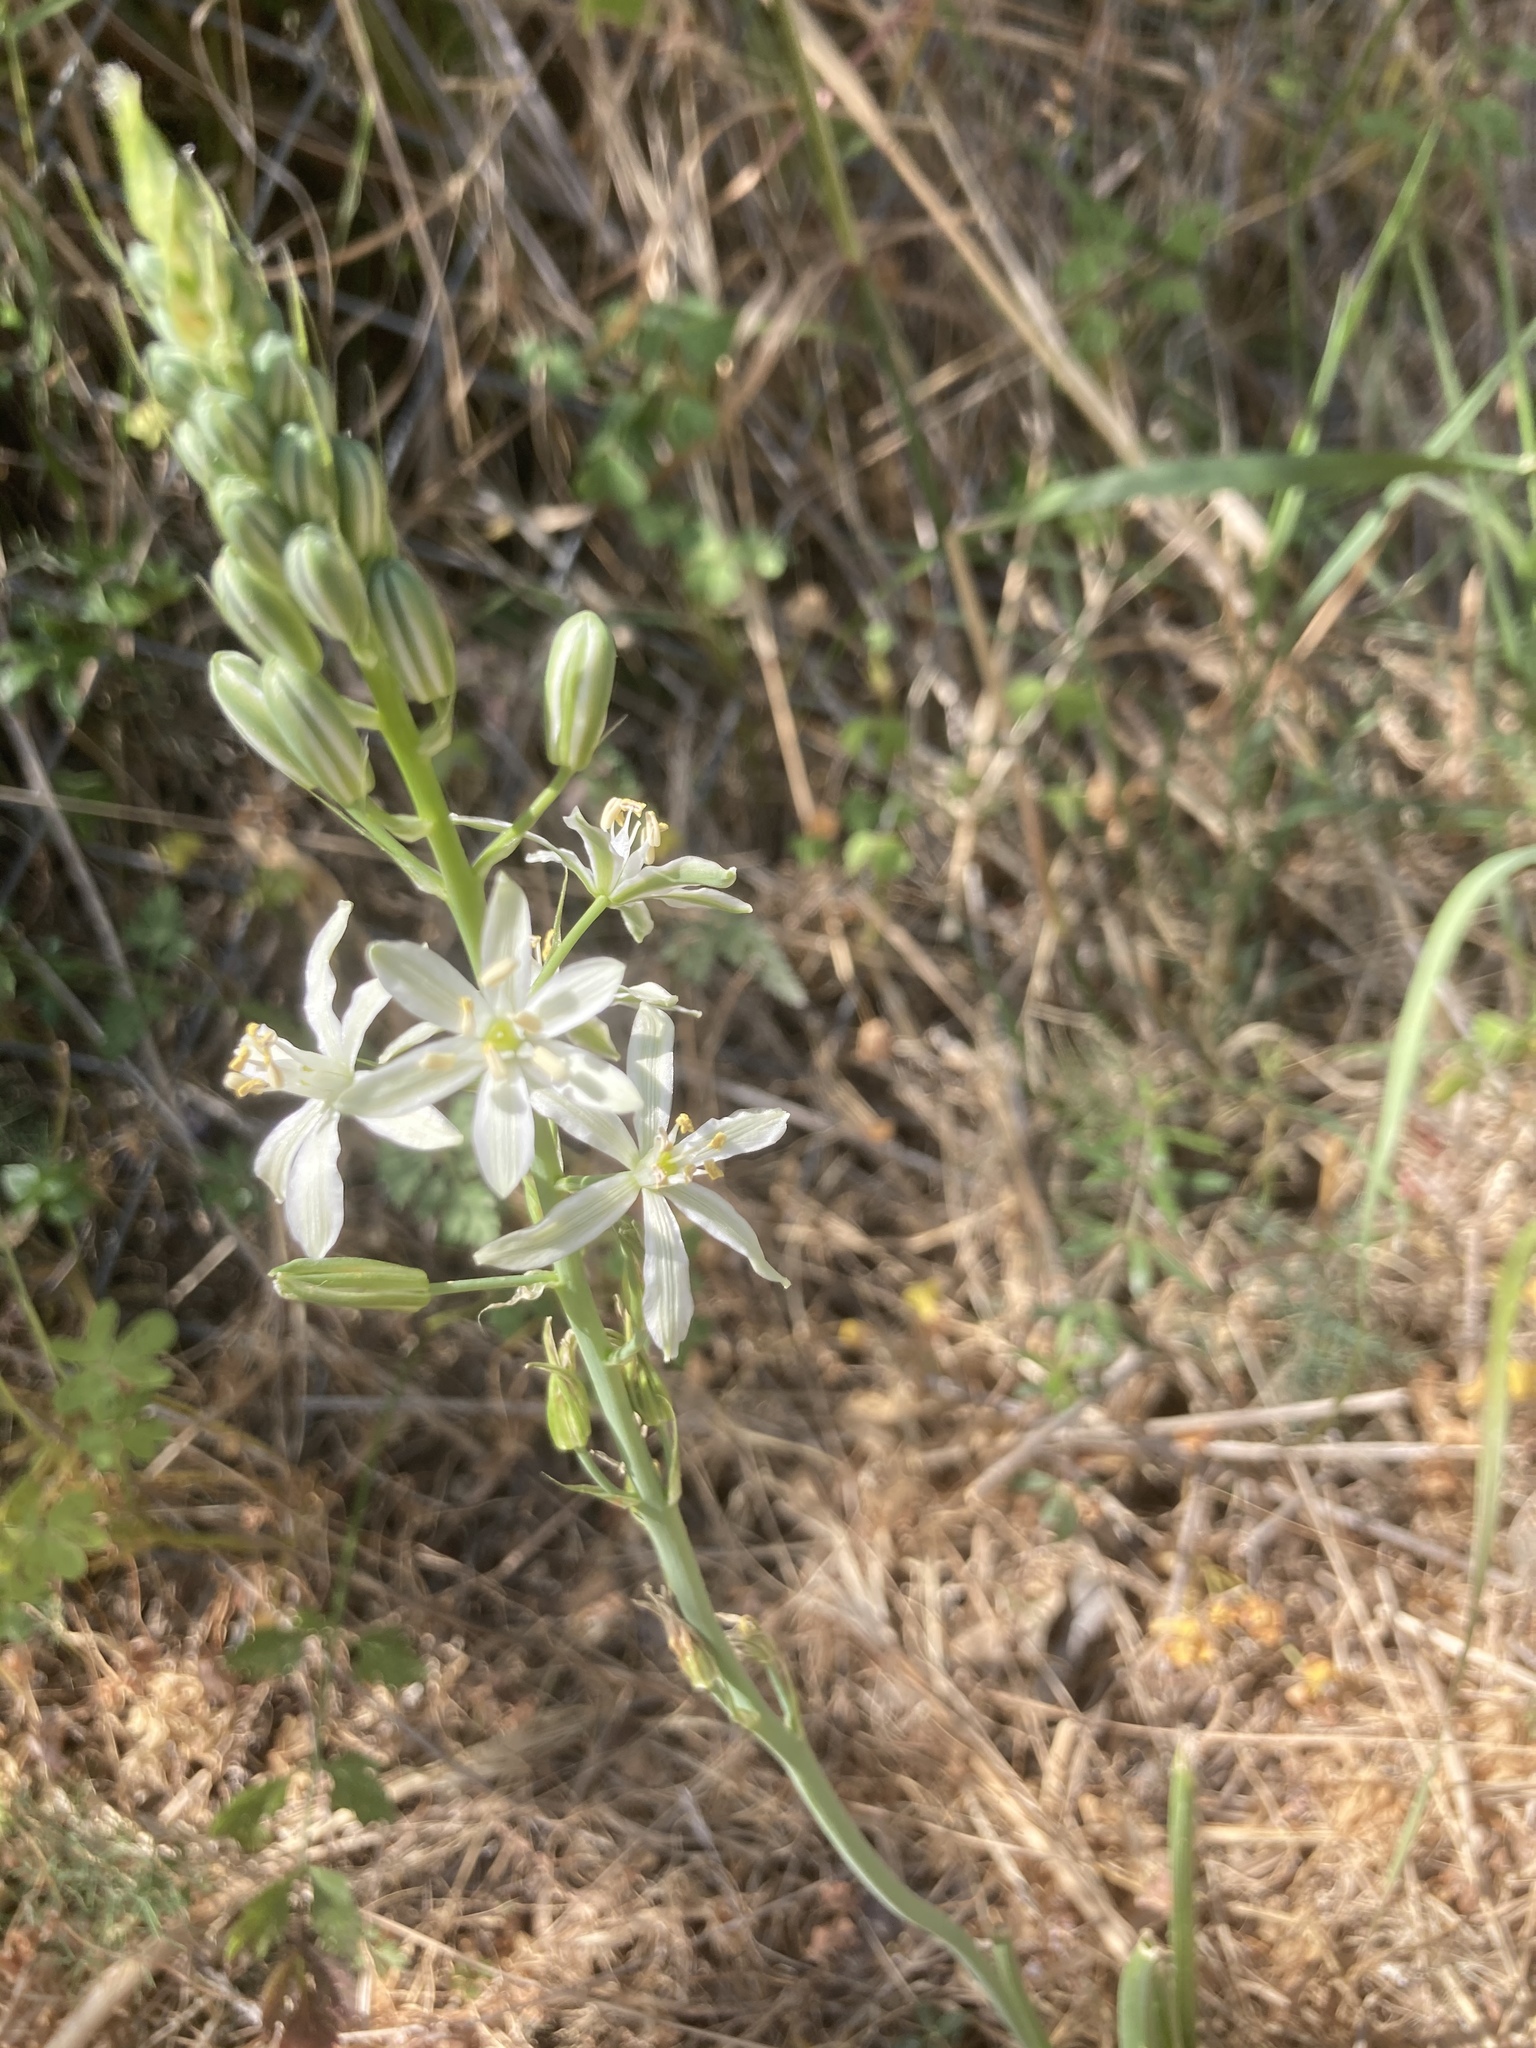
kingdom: Plantae
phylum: Tracheophyta
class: Liliopsida
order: Asparagales
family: Asparagaceae
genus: Ornithogalum
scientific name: Ornithogalum narbonense
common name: Bath-asparagus
